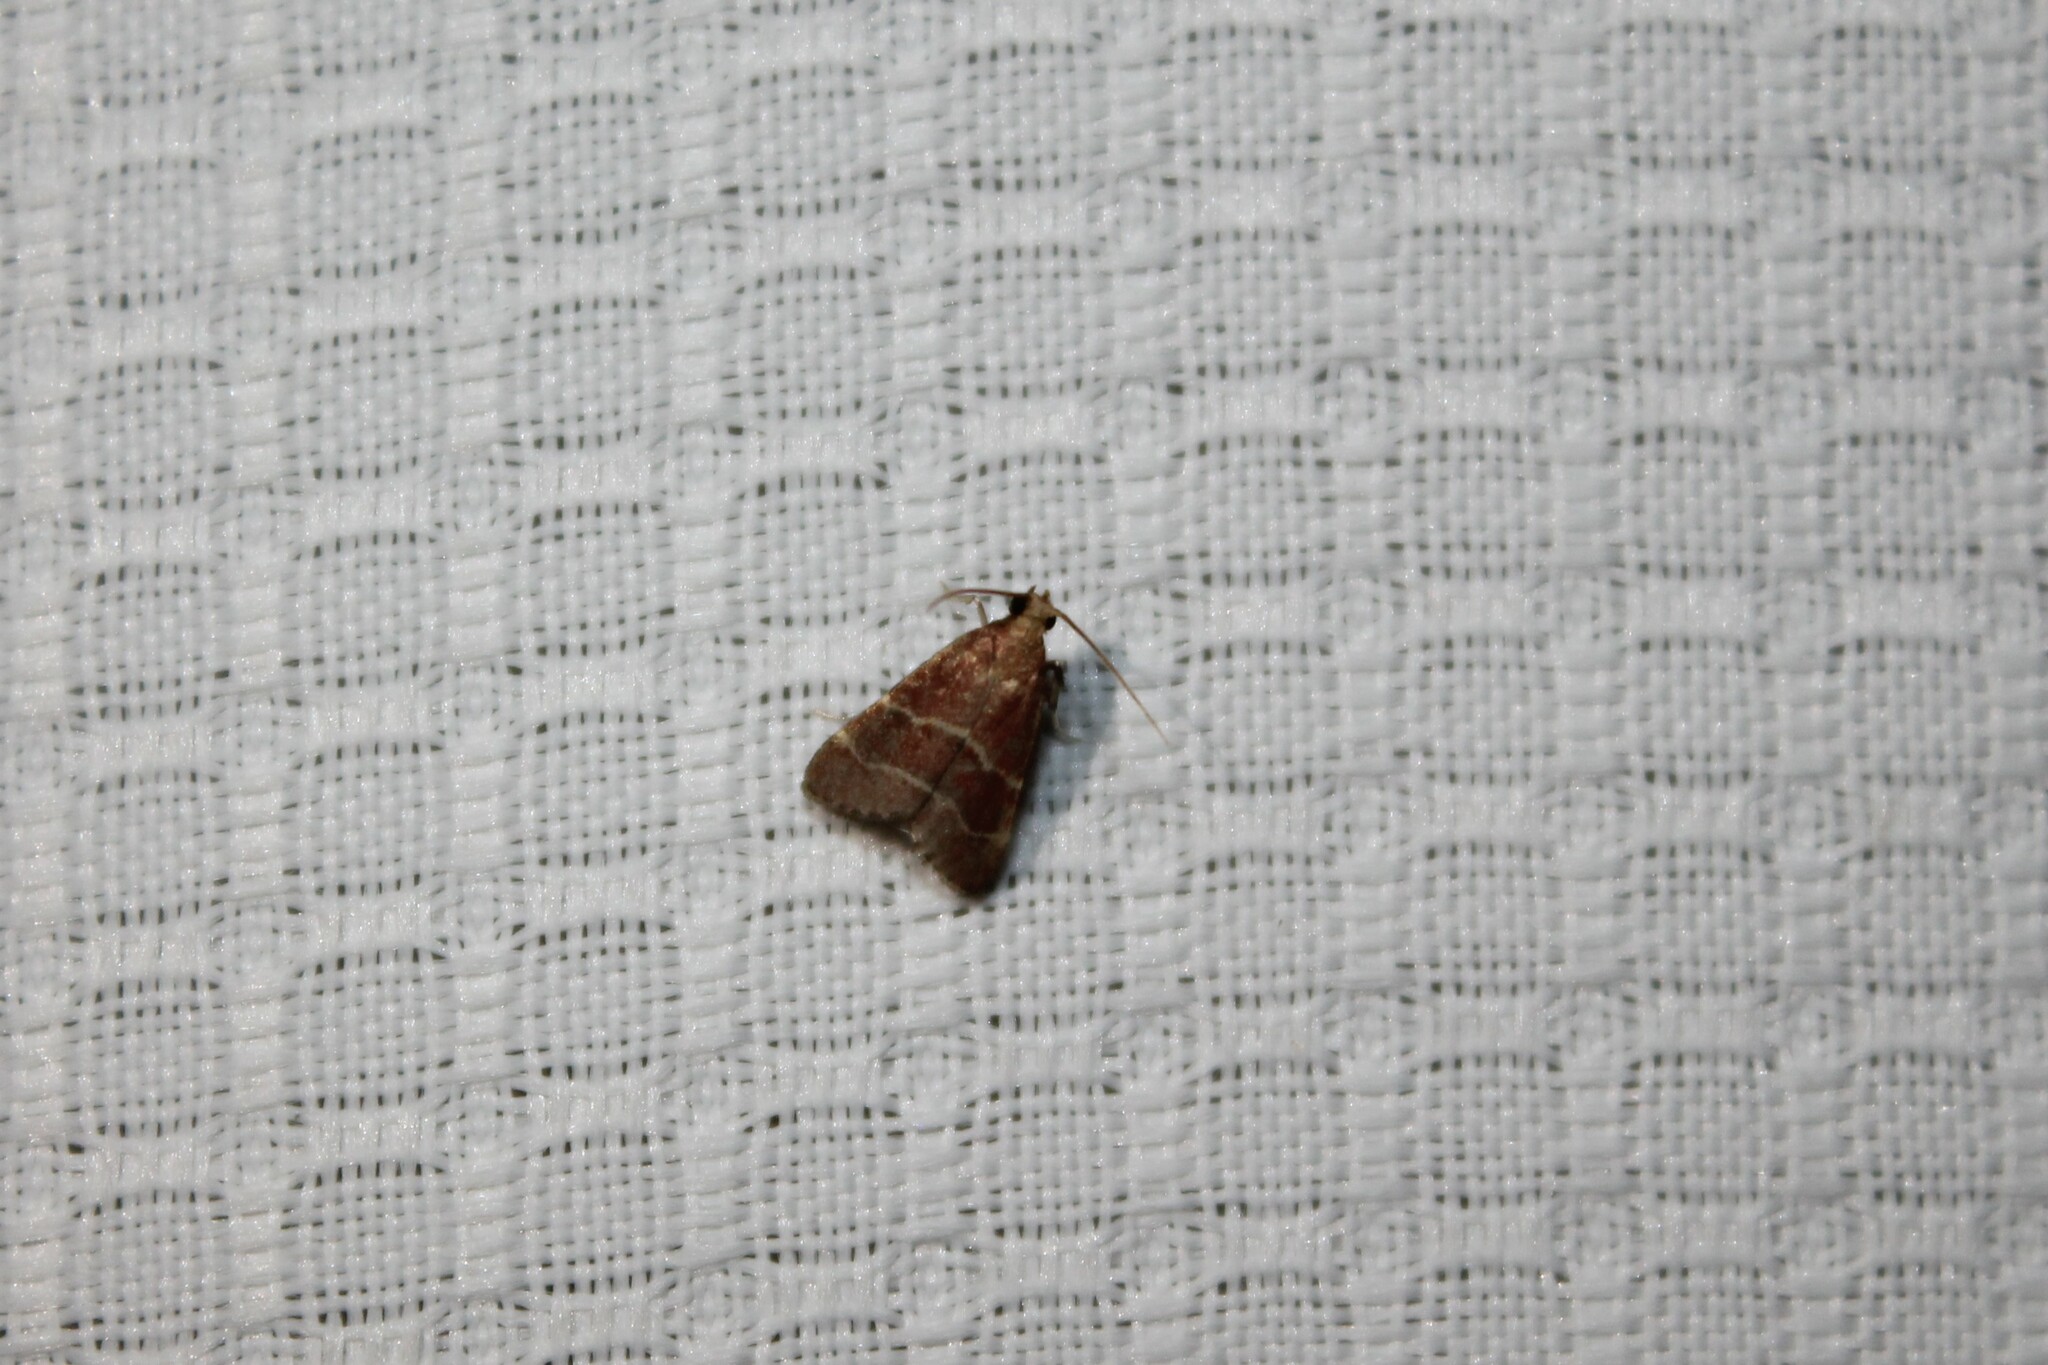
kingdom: Animalia
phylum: Arthropoda
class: Insecta
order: Lepidoptera
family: Pyralidae
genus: Arta
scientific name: Arta statalis
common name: Posturing arta moth
